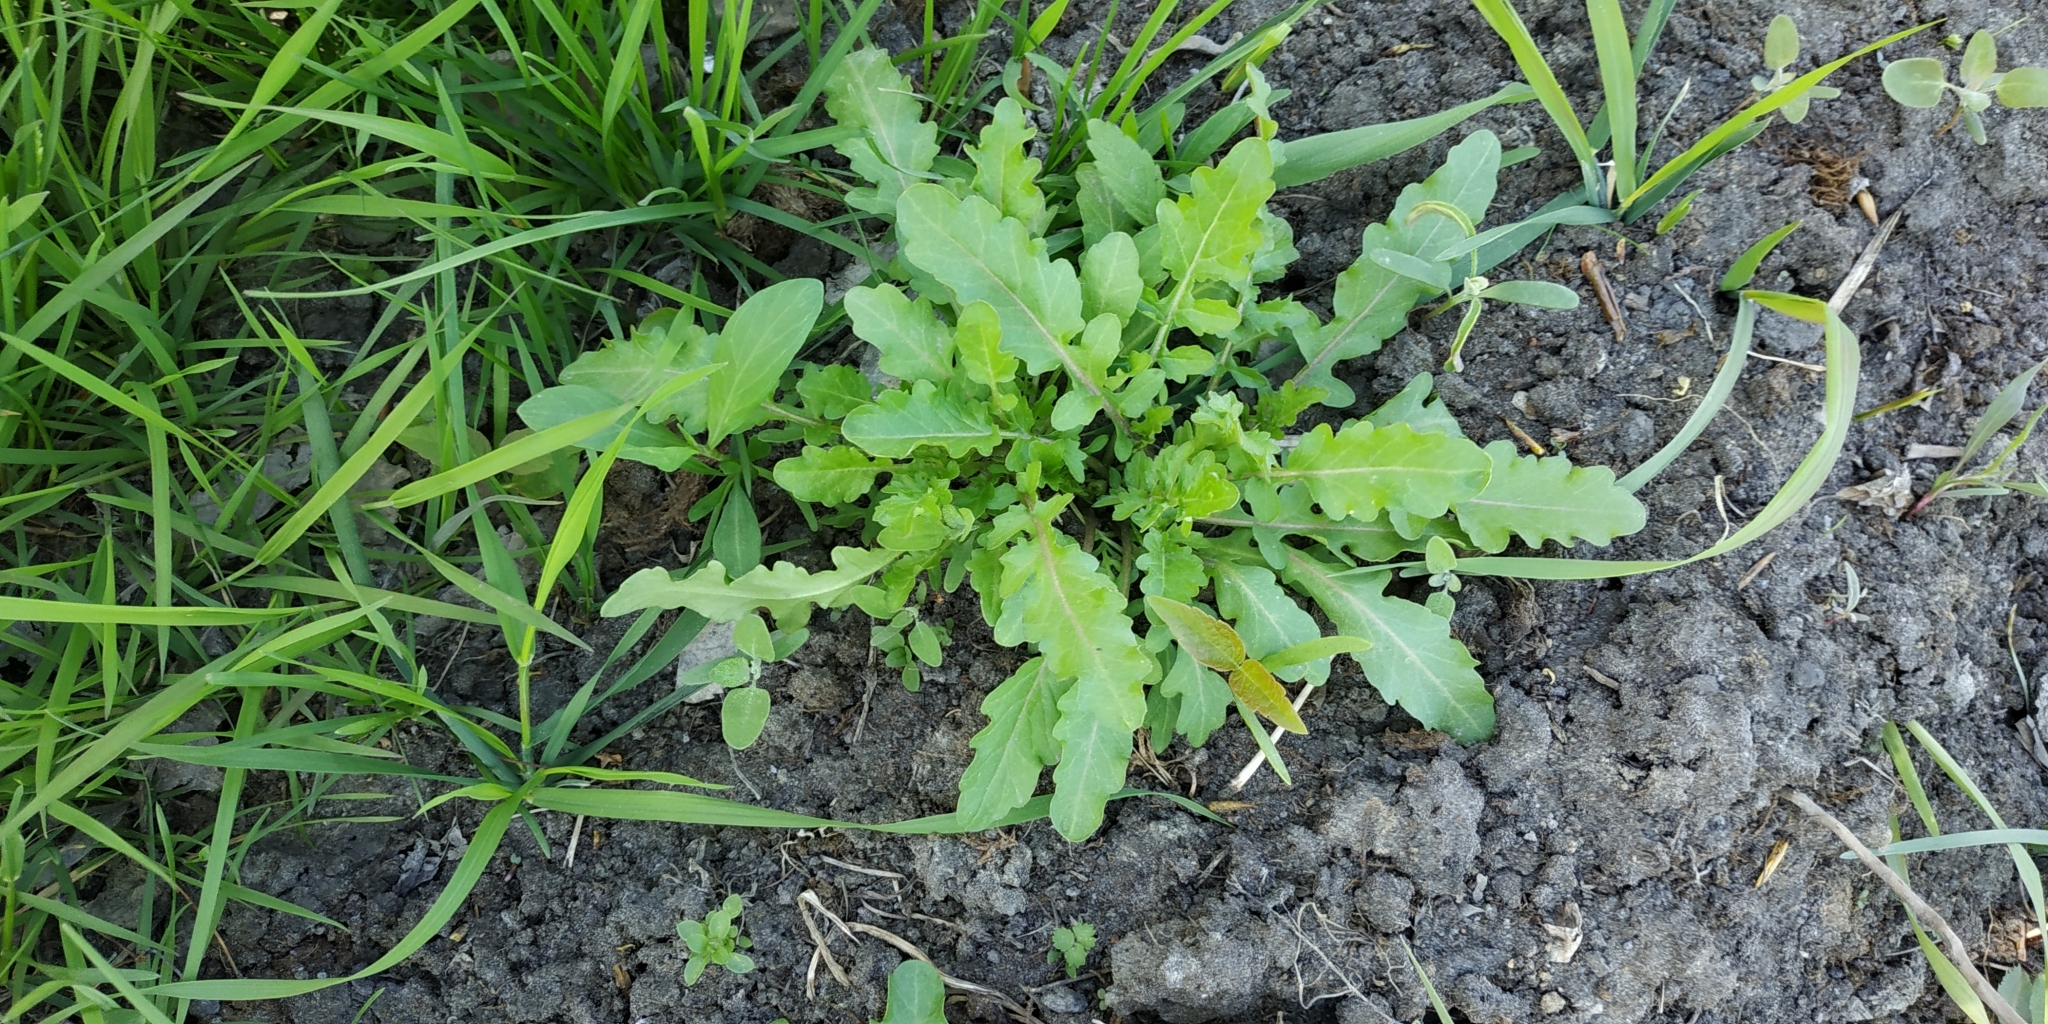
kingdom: Plantae
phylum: Tracheophyta
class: Magnoliopsida
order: Brassicales
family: Brassicaceae
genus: Rorippa
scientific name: Rorippa palustris
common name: Marsh yellow-cress
